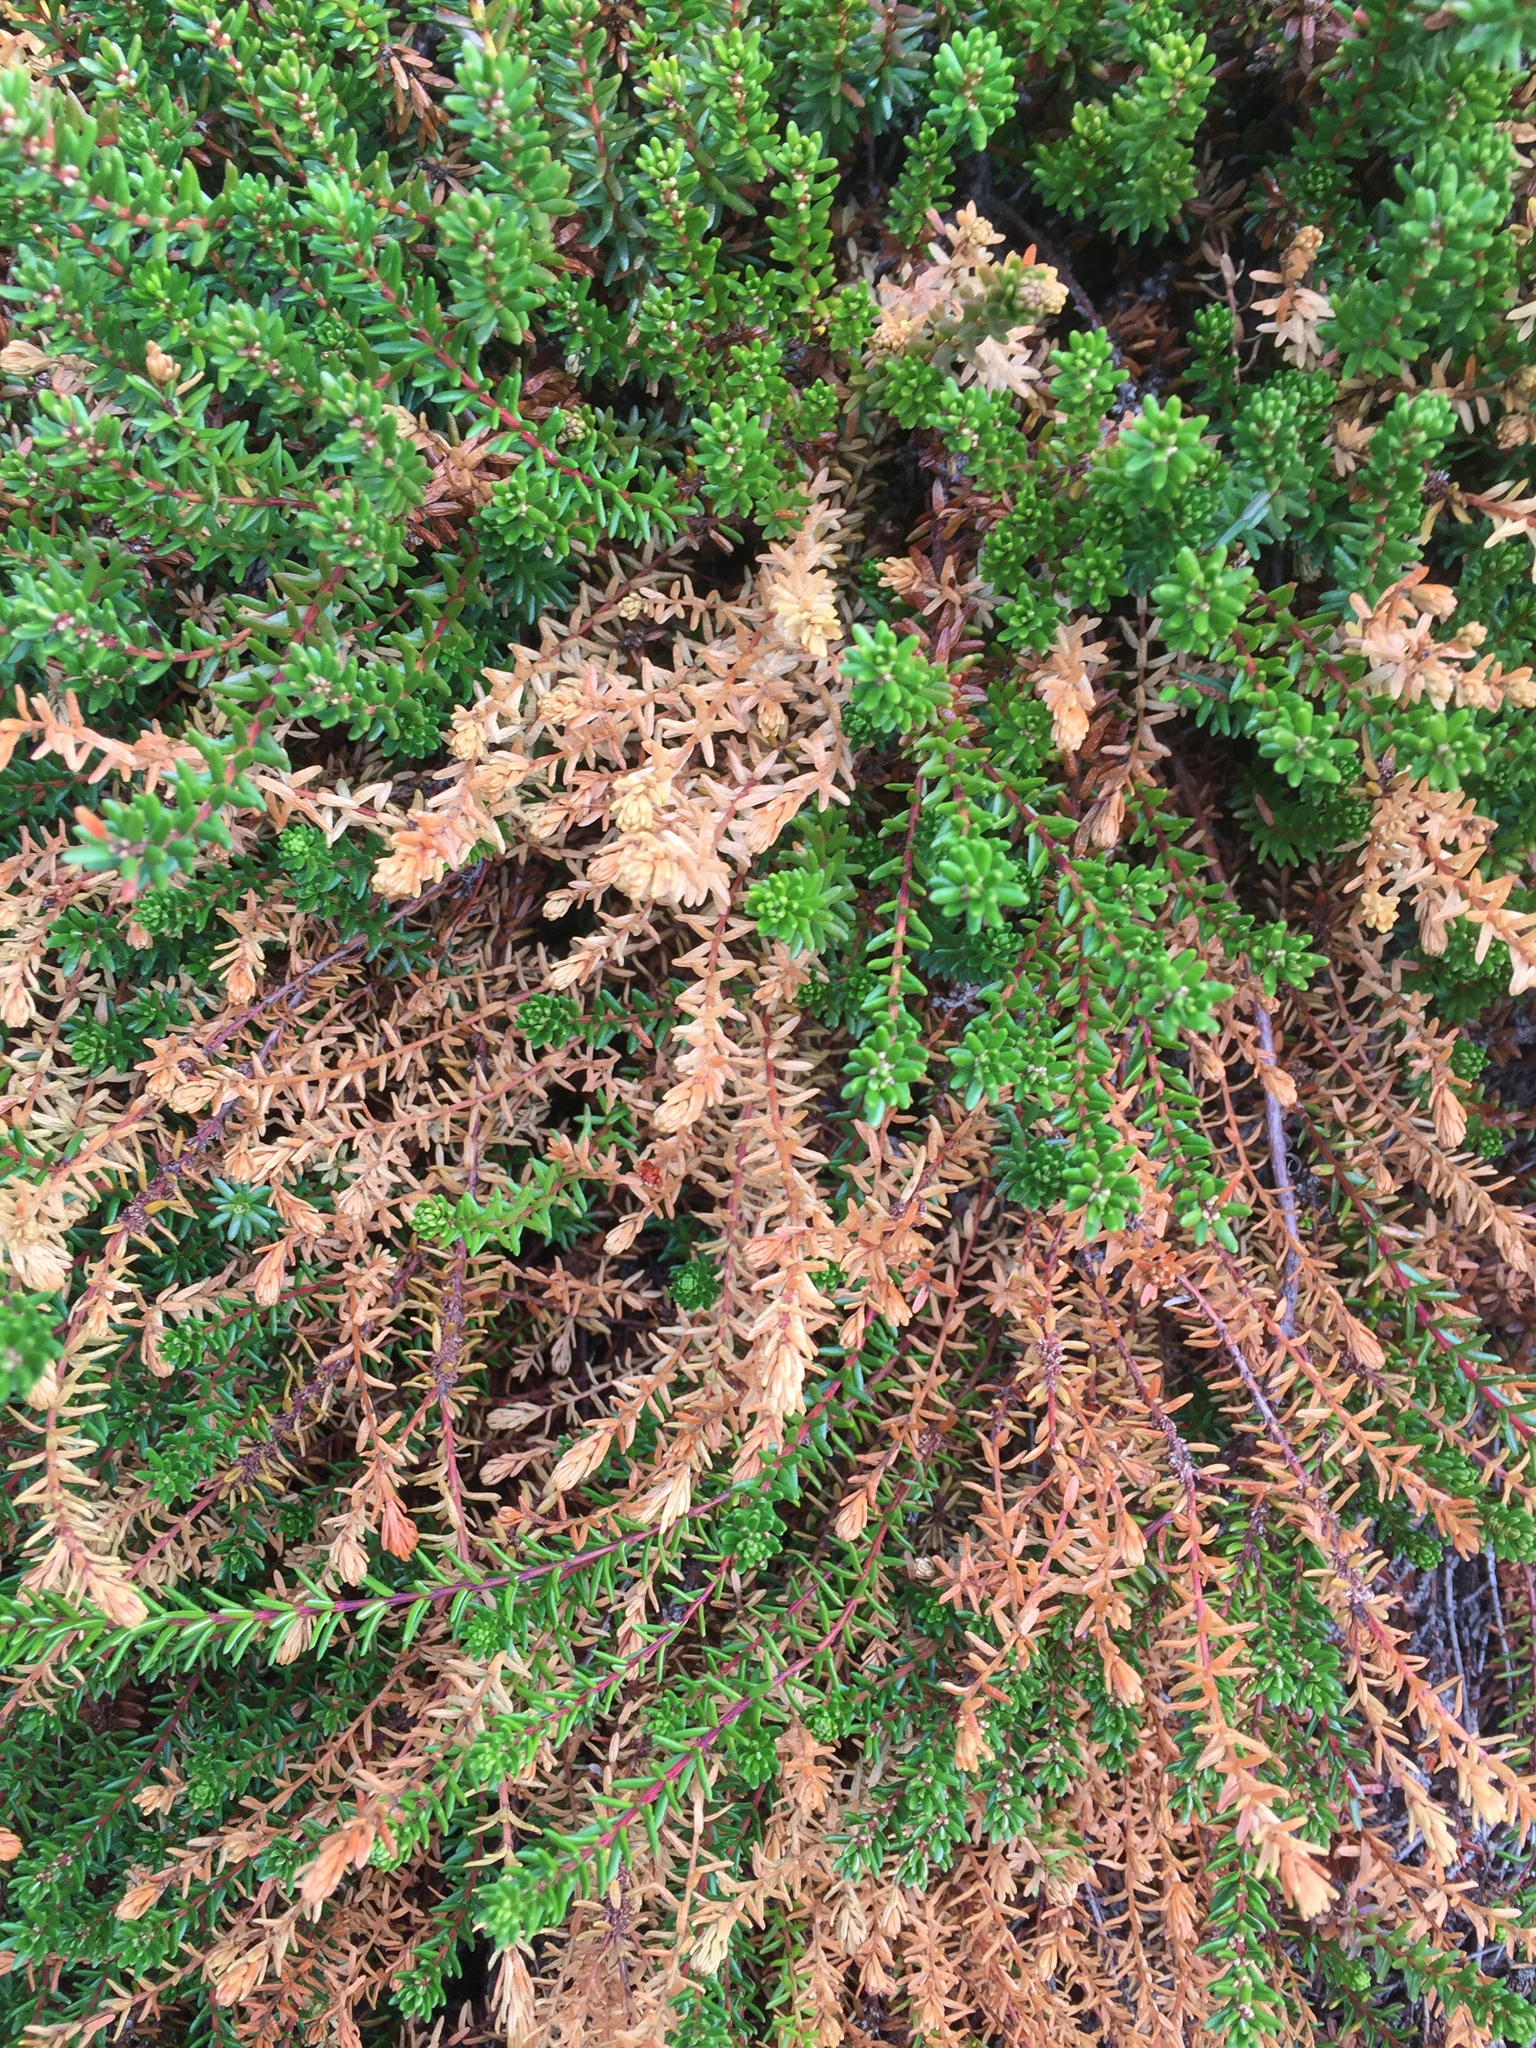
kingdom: Plantae
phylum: Tracheophyta
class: Magnoliopsida
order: Ericales
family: Ericaceae
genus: Empetrum
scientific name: Empetrum nigrum
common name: Black crowberry
